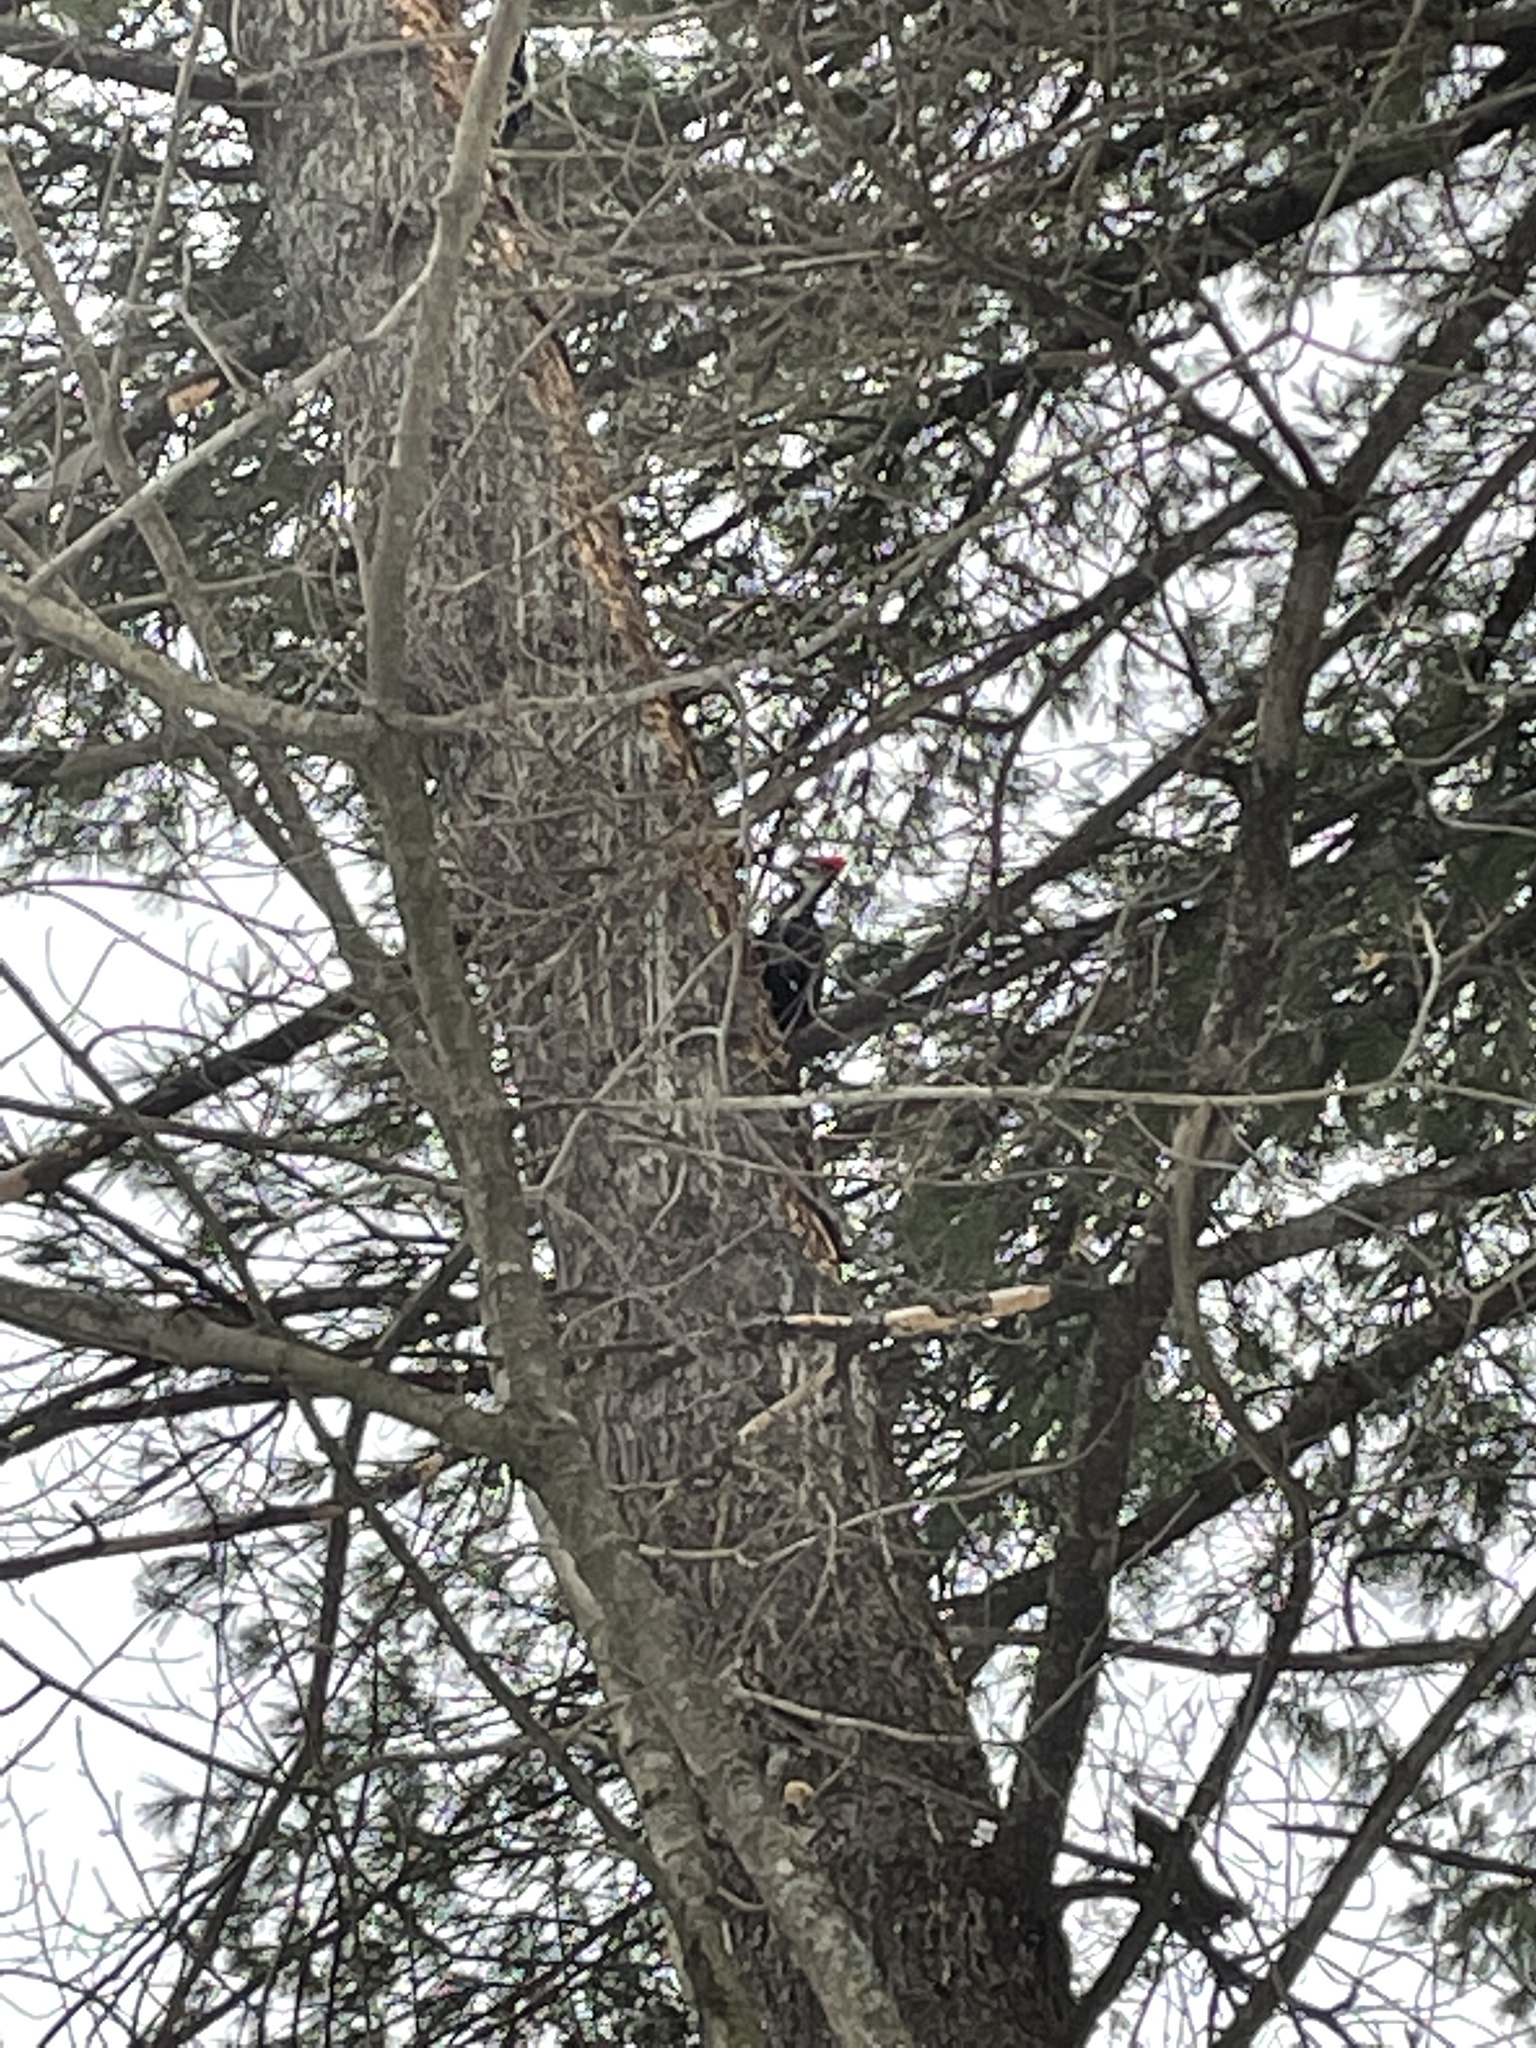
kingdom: Animalia
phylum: Chordata
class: Aves
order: Piciformes
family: Picidae
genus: Dryocopus
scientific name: Dryocopus pileatus
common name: Pileated woodpecker
